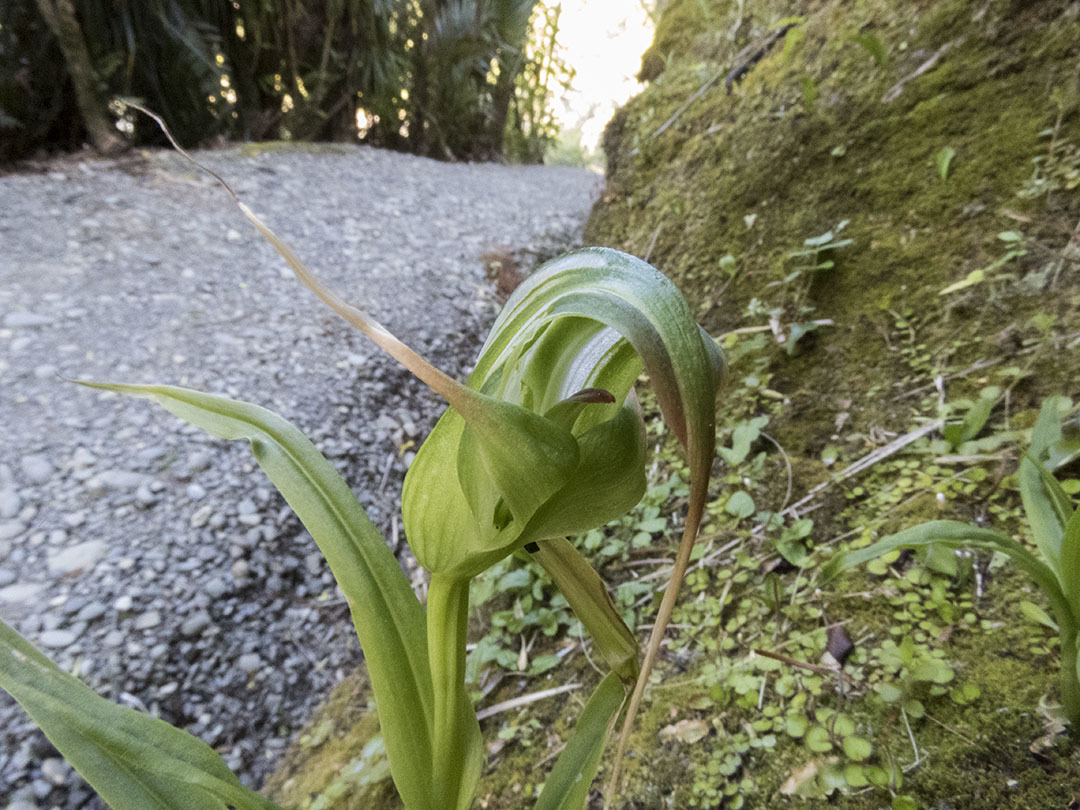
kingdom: Plantae
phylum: Tracheophyta
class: Liliopsida
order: Asparagales
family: Orchidaceae
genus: Pterostylis
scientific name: Pterostylis patens
